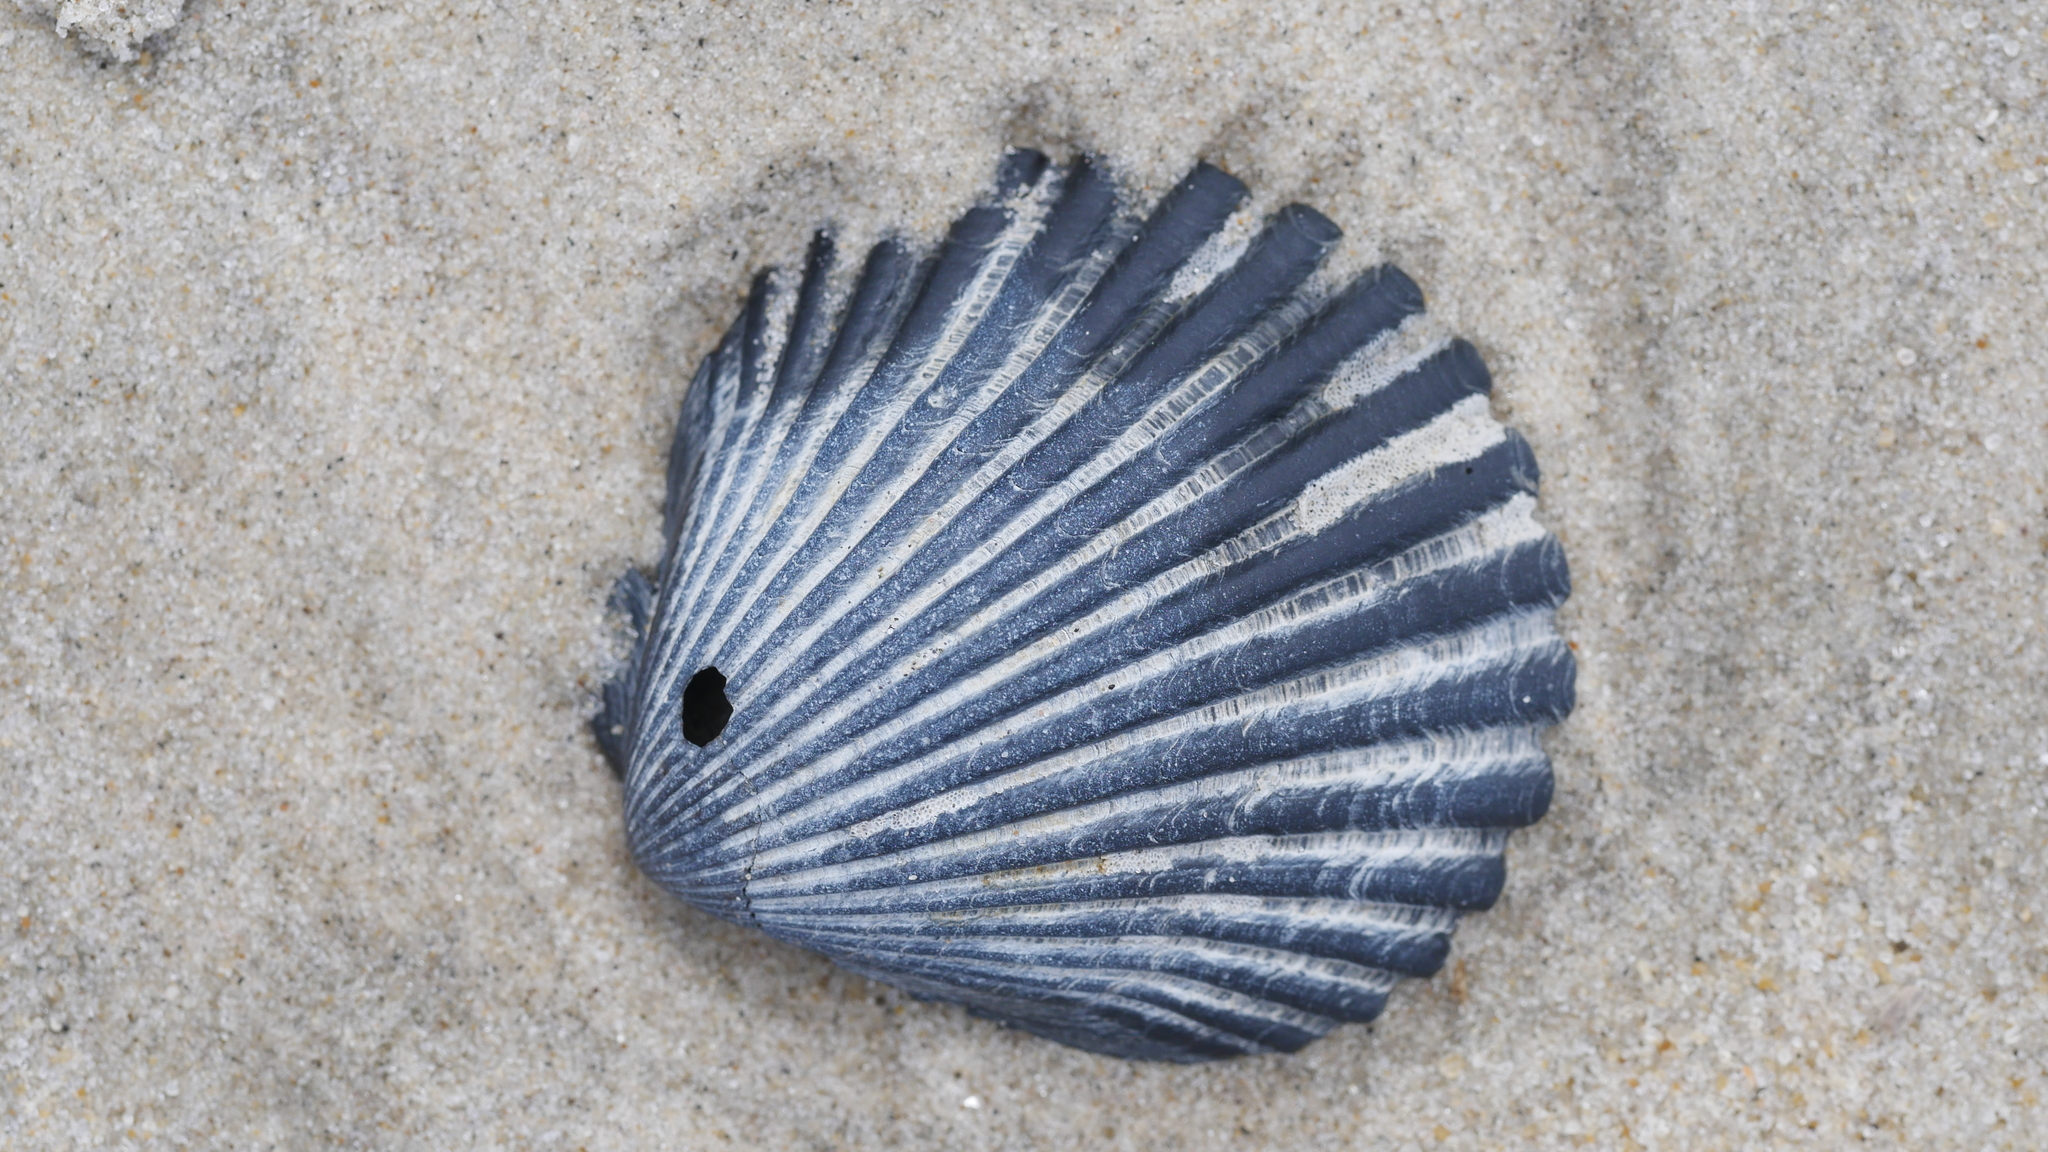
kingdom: Animalia
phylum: Mollusca
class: Bivalvia
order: Pectinida
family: Pectinidae
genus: Argopecten
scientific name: Argopecten irradians
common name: Atlantic bay scallop
